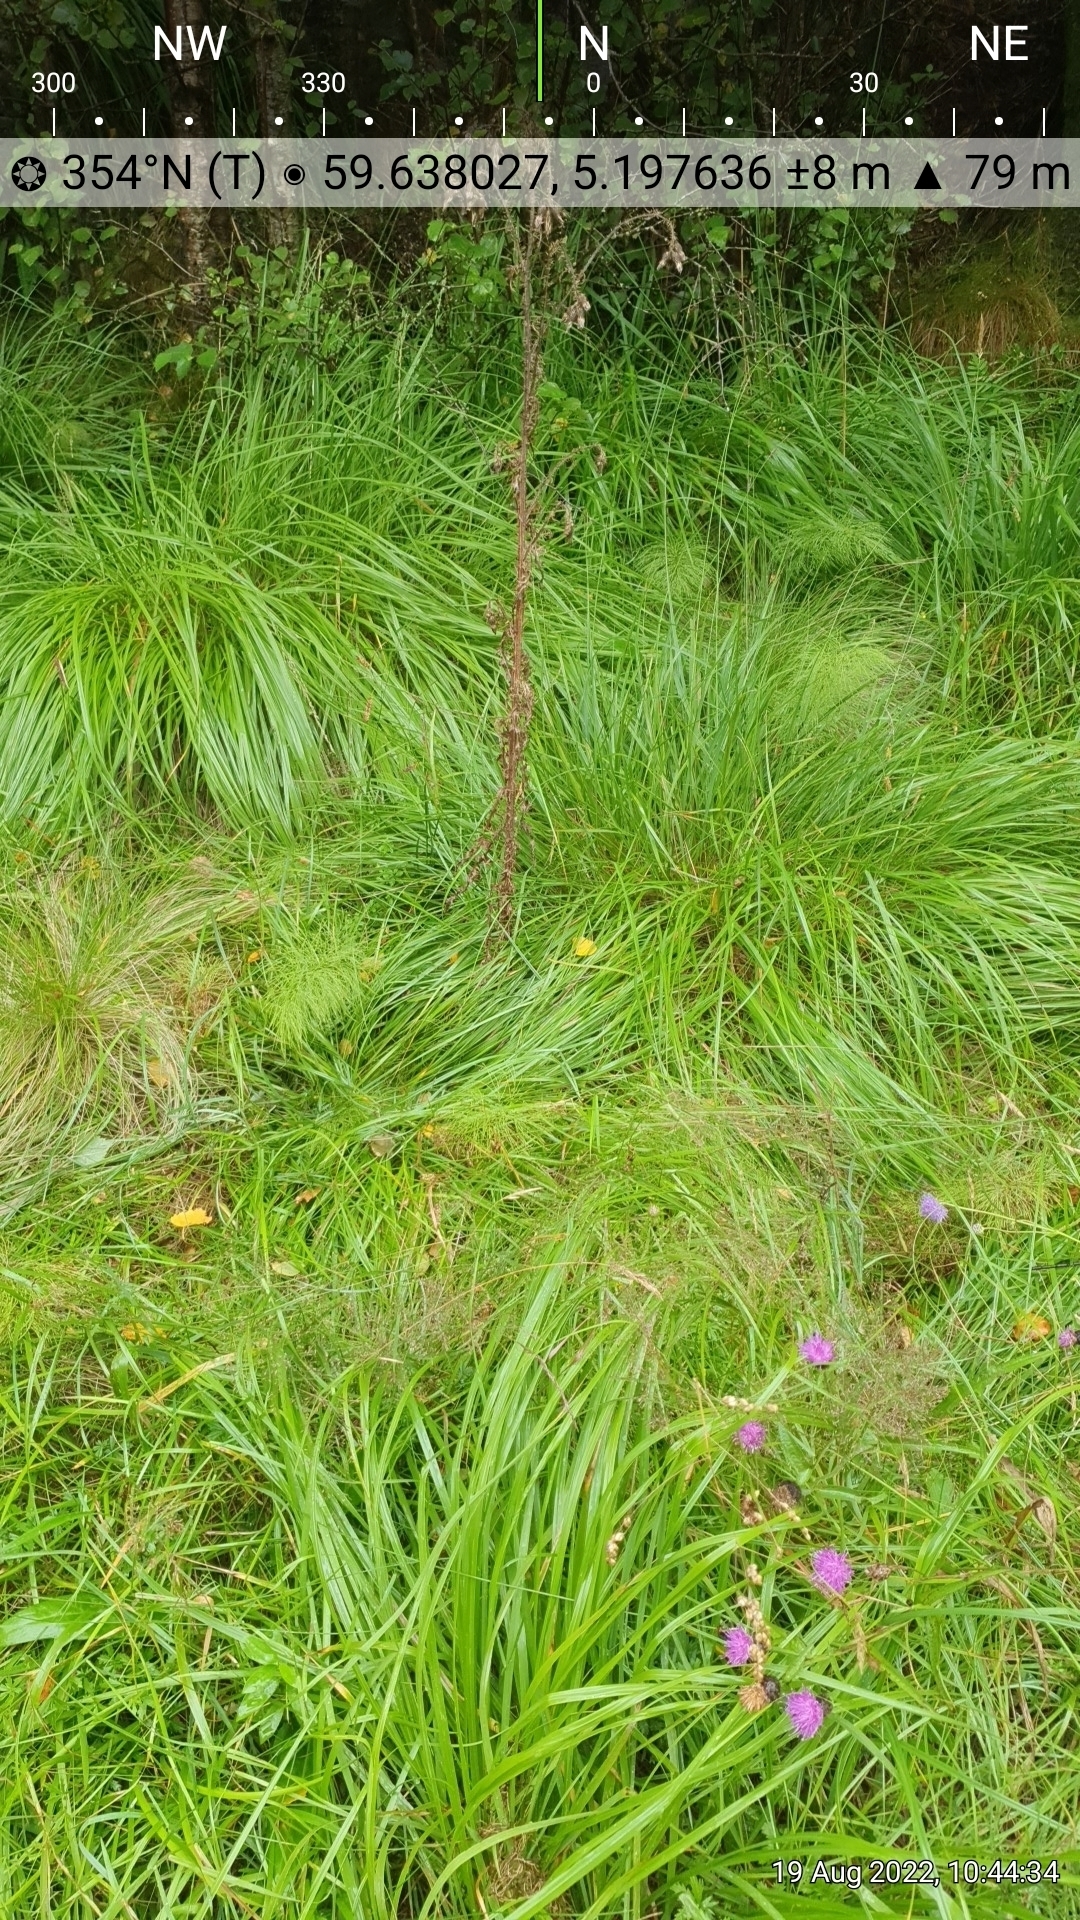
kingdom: Plantae
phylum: Tracheophyta
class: Liliopsida
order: Dioscoreales
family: Nartheciaceae
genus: Narthecium
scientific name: Narthecium ossifragum
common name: Bog asphodel
